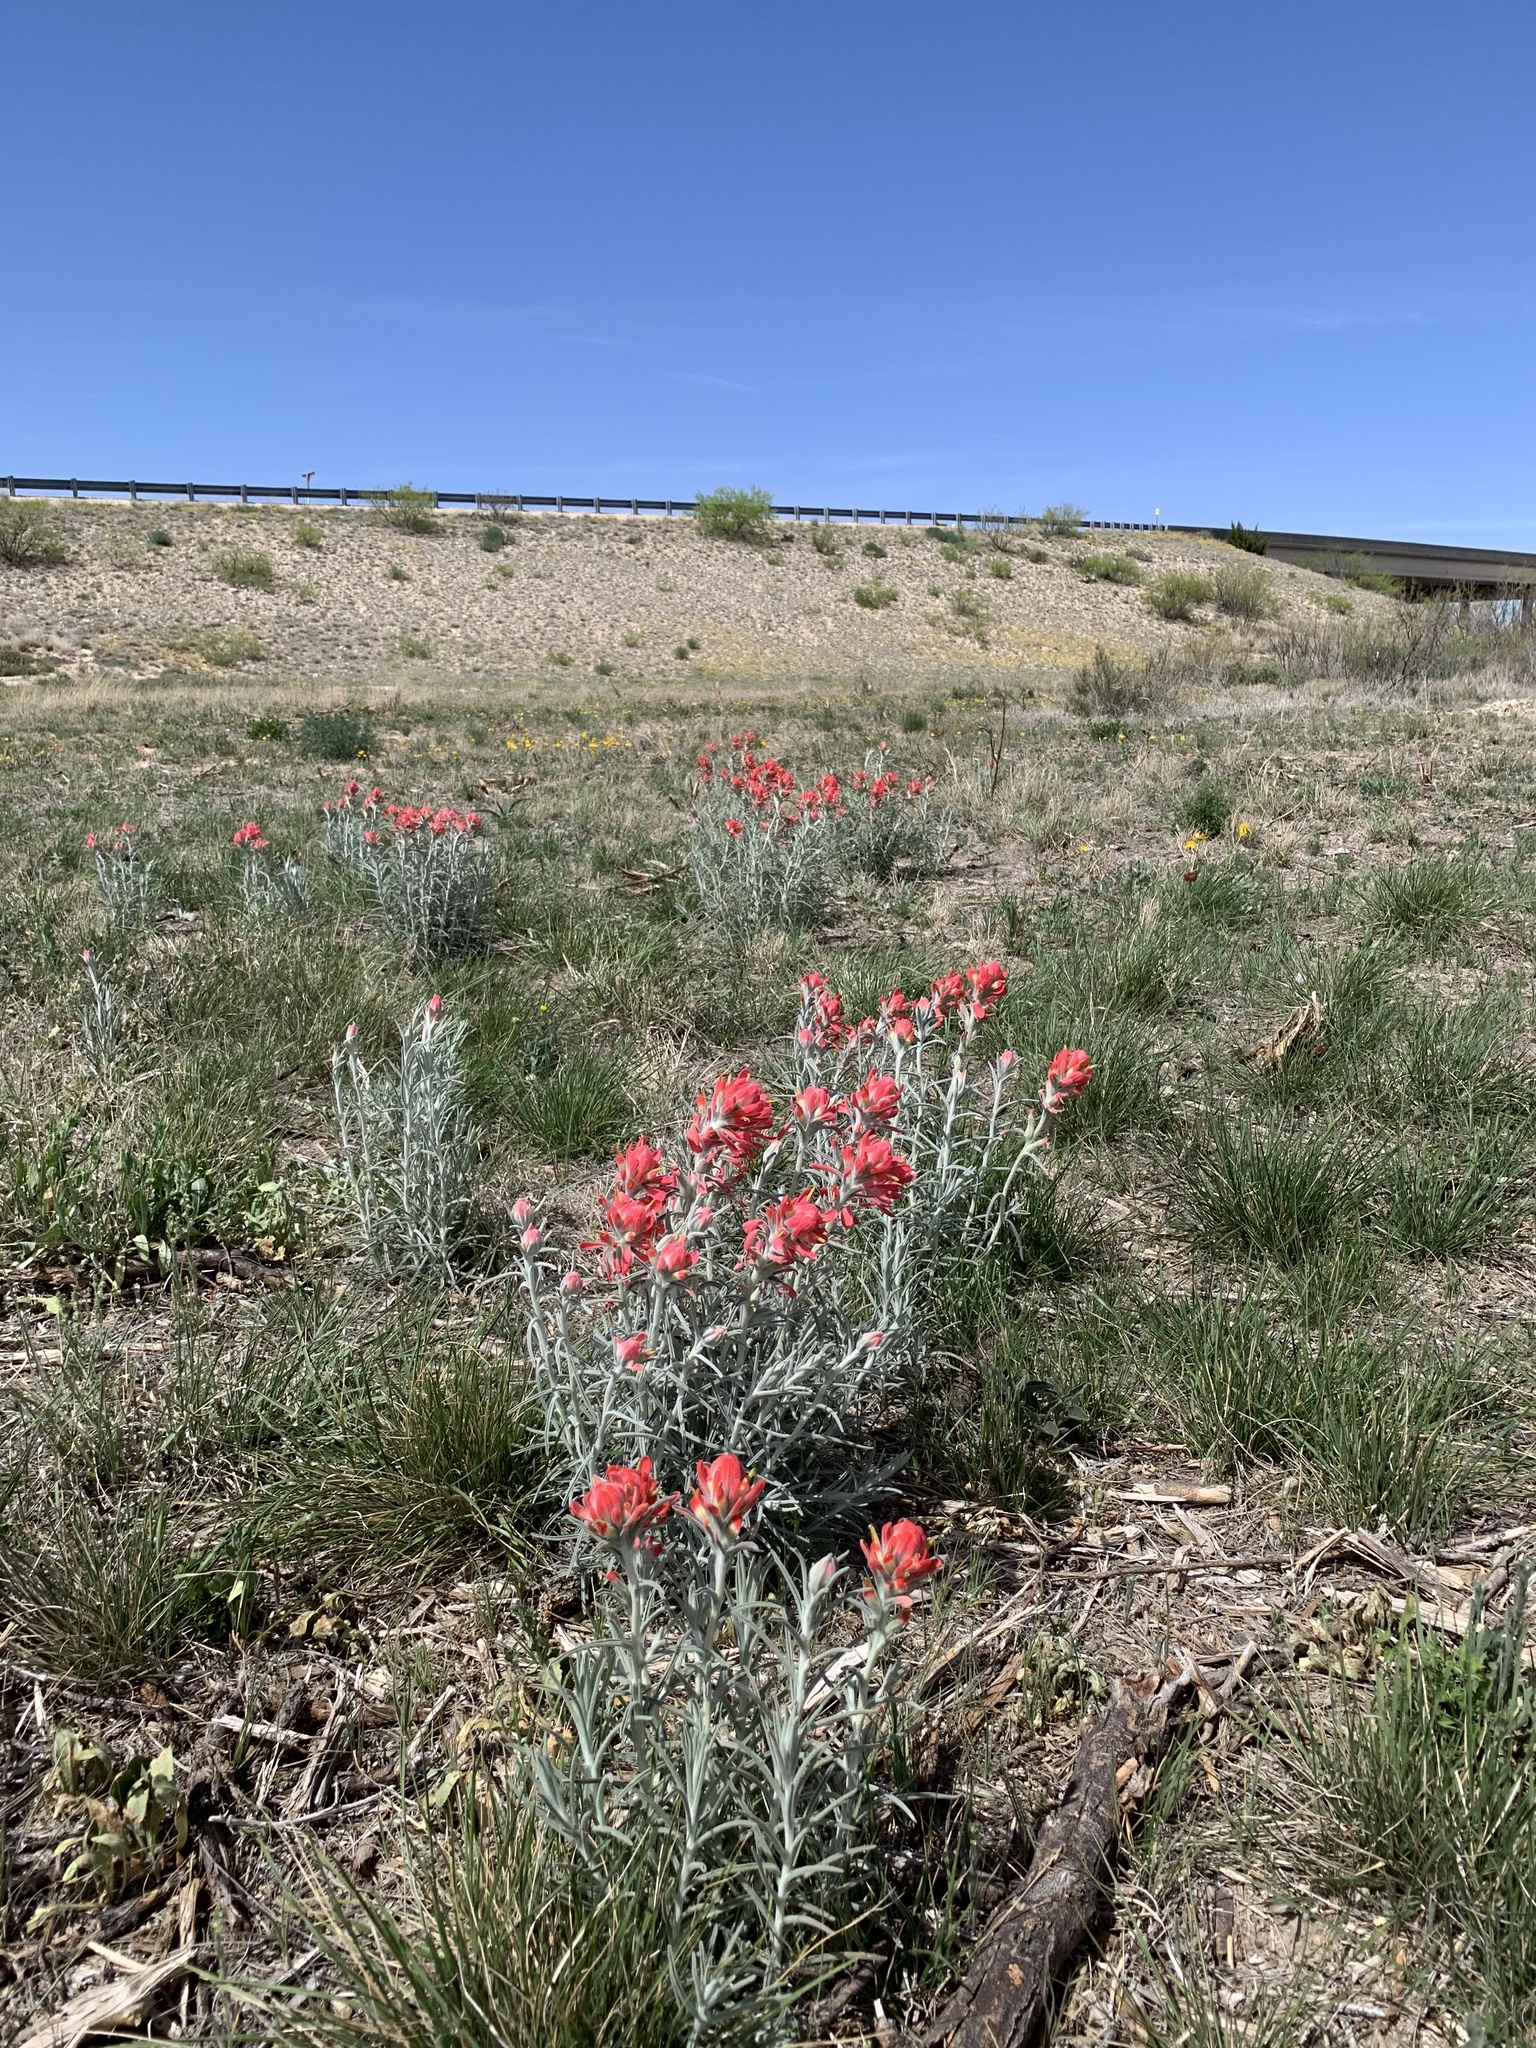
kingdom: Plantae
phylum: Tracheophyta
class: Magnoliopsida
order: Lamiales
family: Orobanchaceae
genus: Castilleja
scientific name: Castilleja lanata
